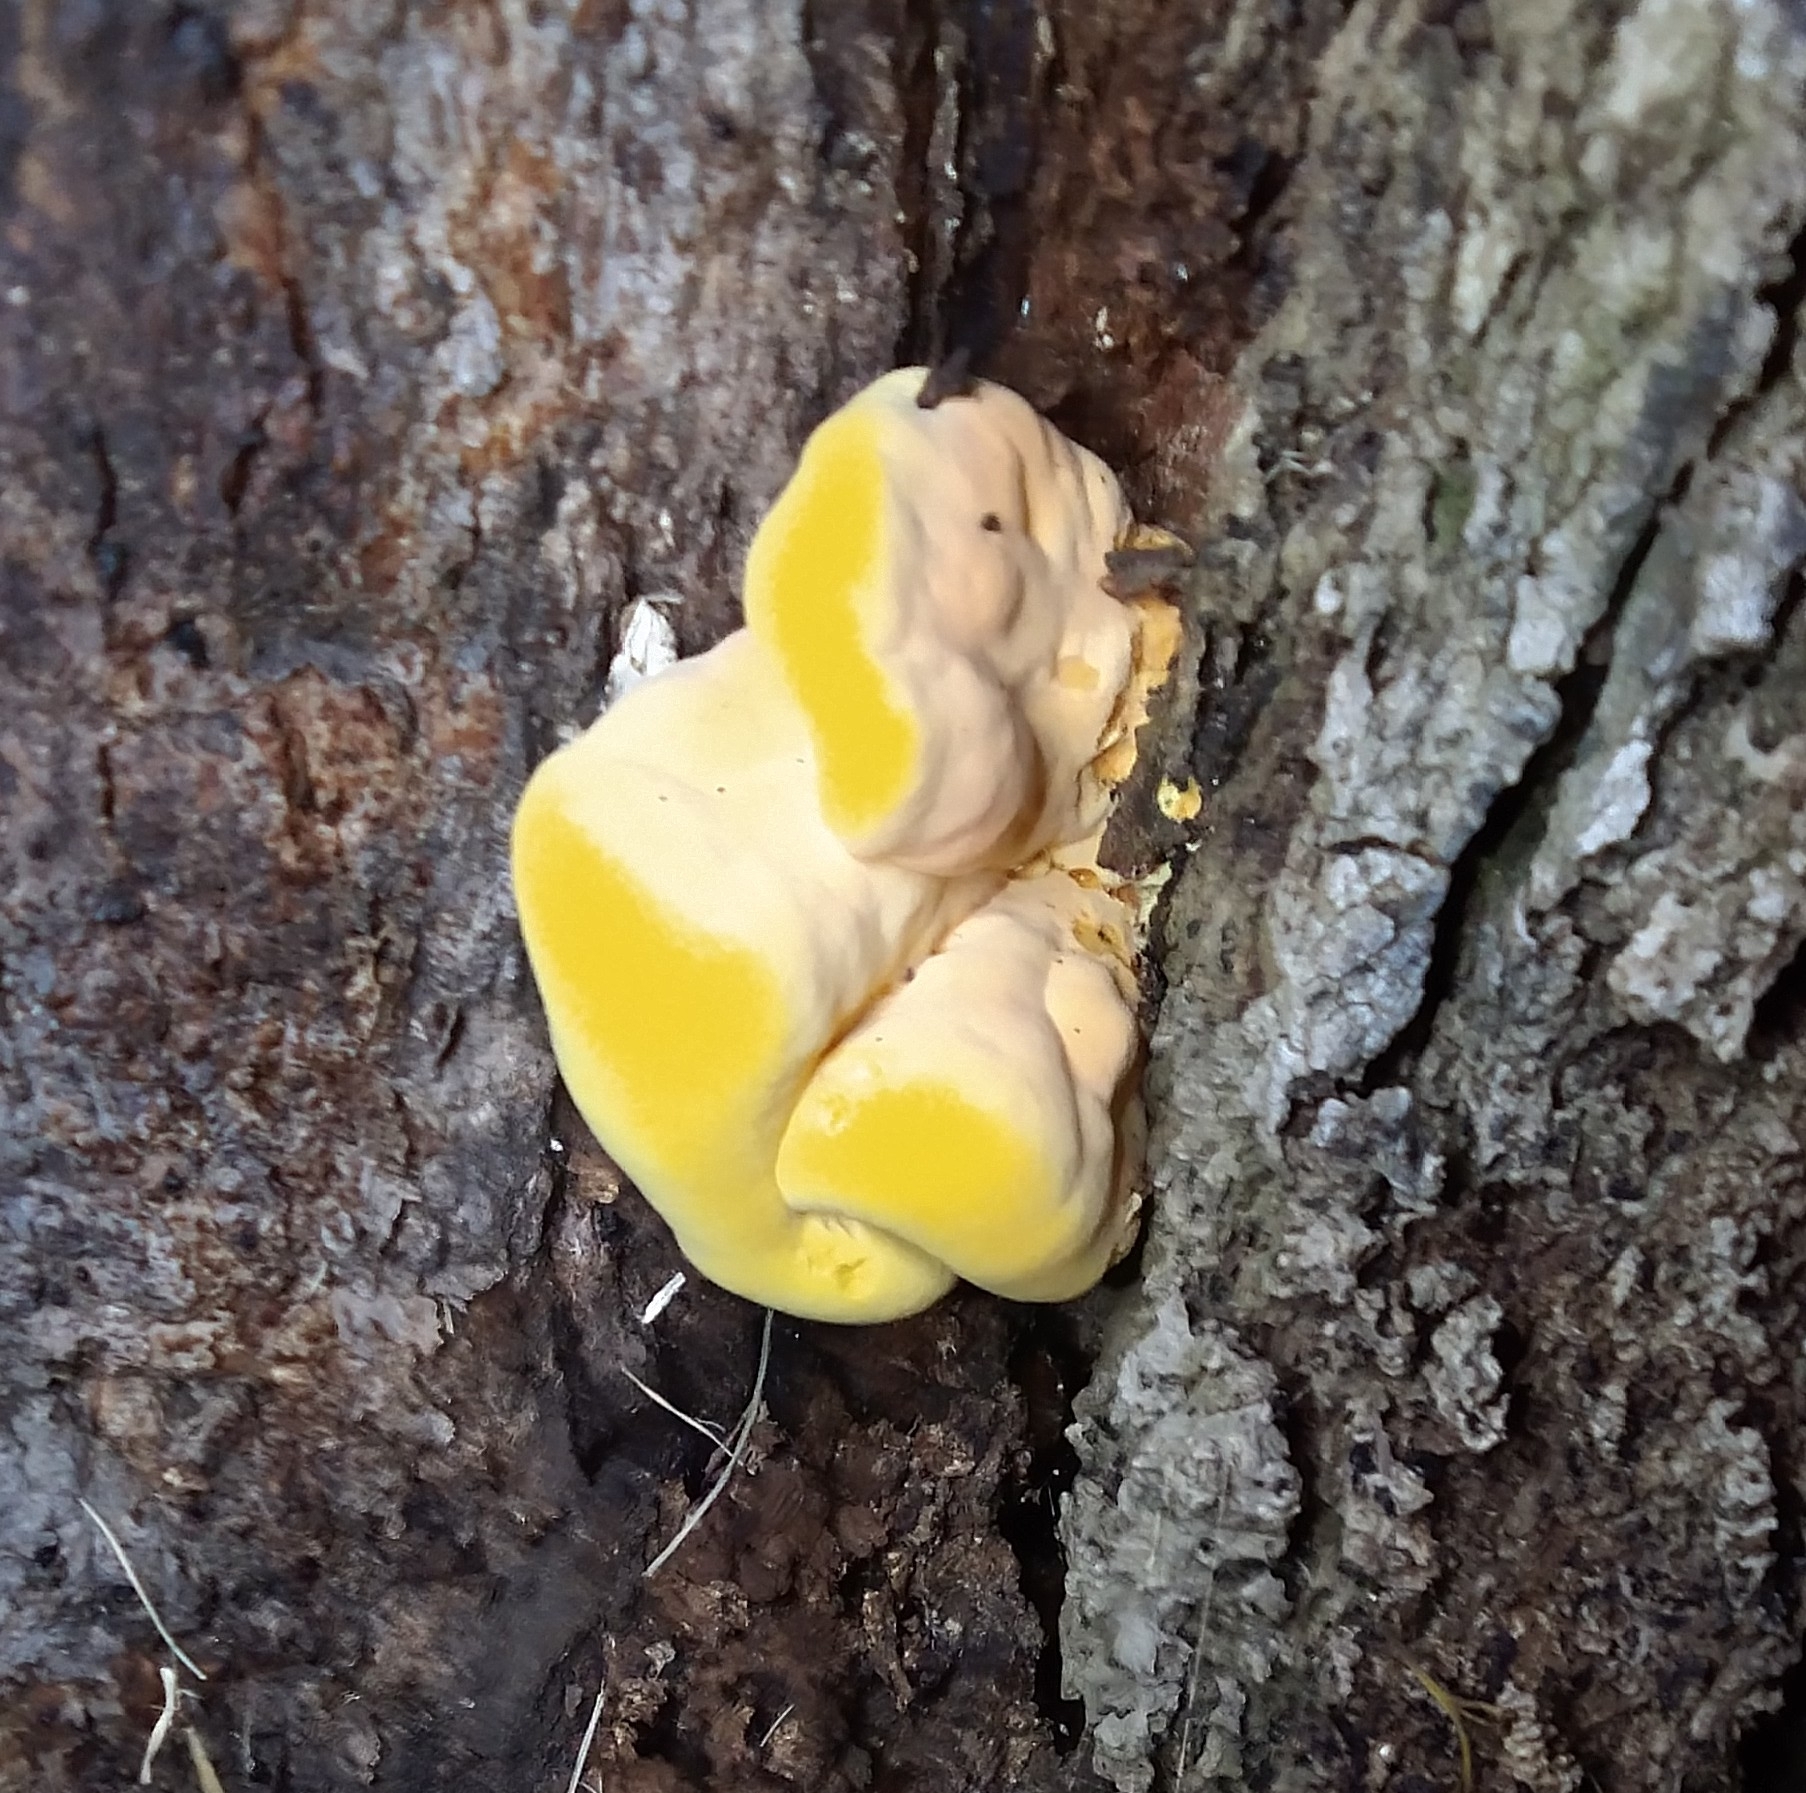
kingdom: Fungi
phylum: Basidiomycota
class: Agaricomycetes
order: Polyporales
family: Laetiporaceae
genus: Laetiporus
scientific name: Laetiporus gilbertsonii
